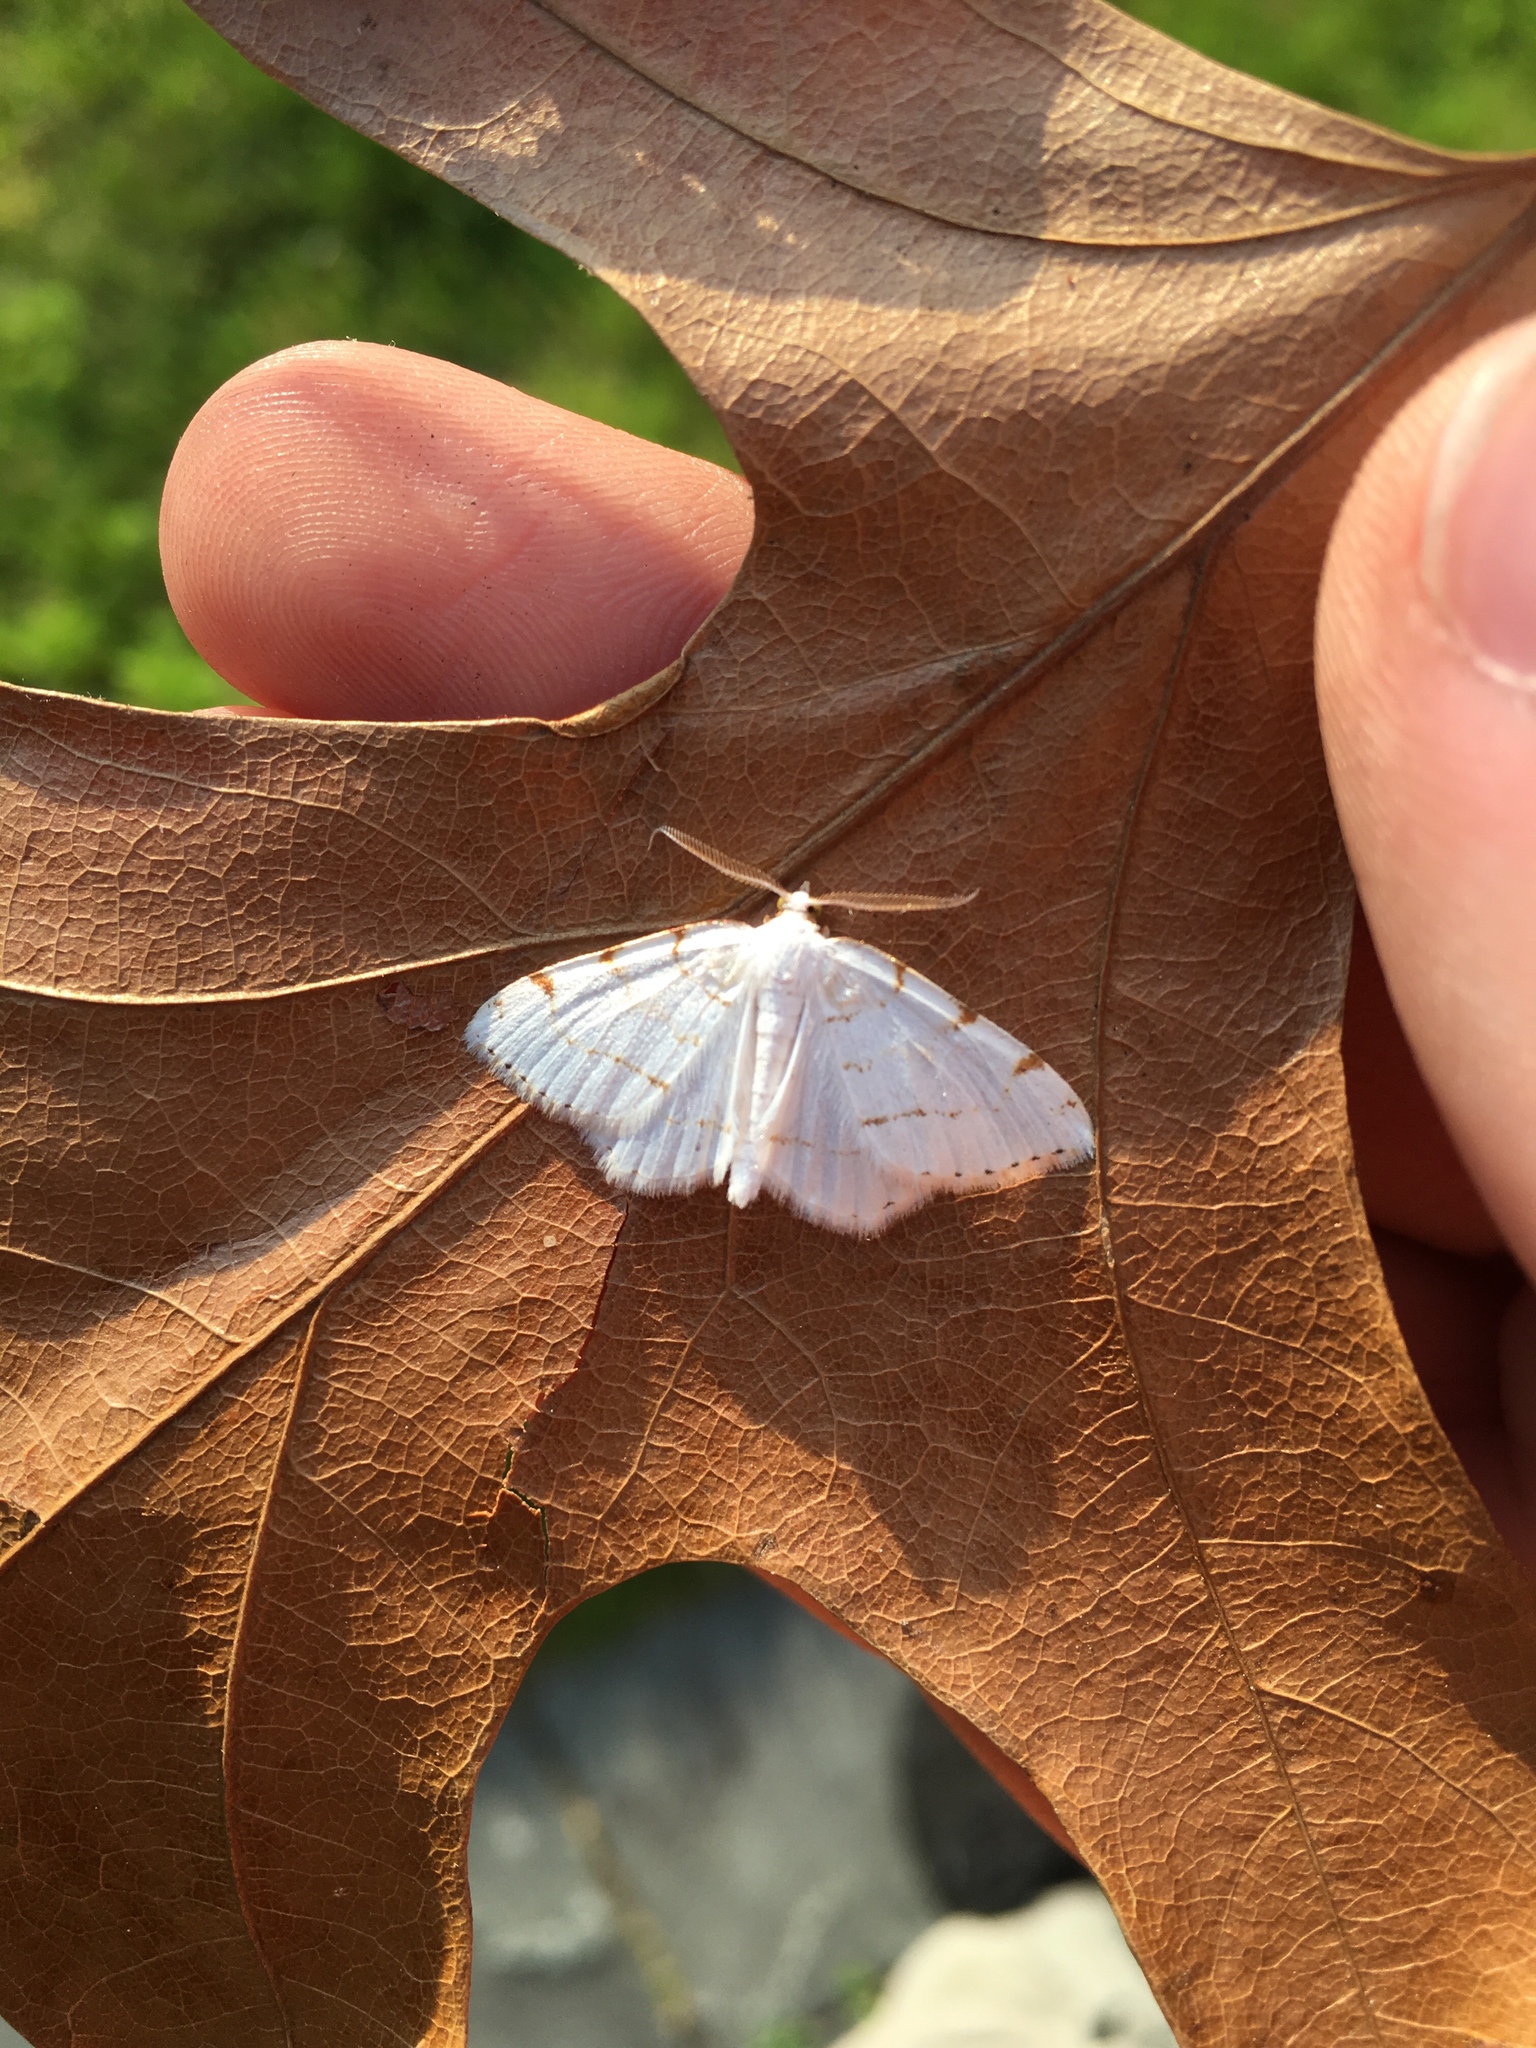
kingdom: Animalia
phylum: Arthropoda
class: Insecta
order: Lepidoptera
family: Geometridae
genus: Macaria
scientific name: Macaria pustularia
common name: Lesser maple spanworm moth
